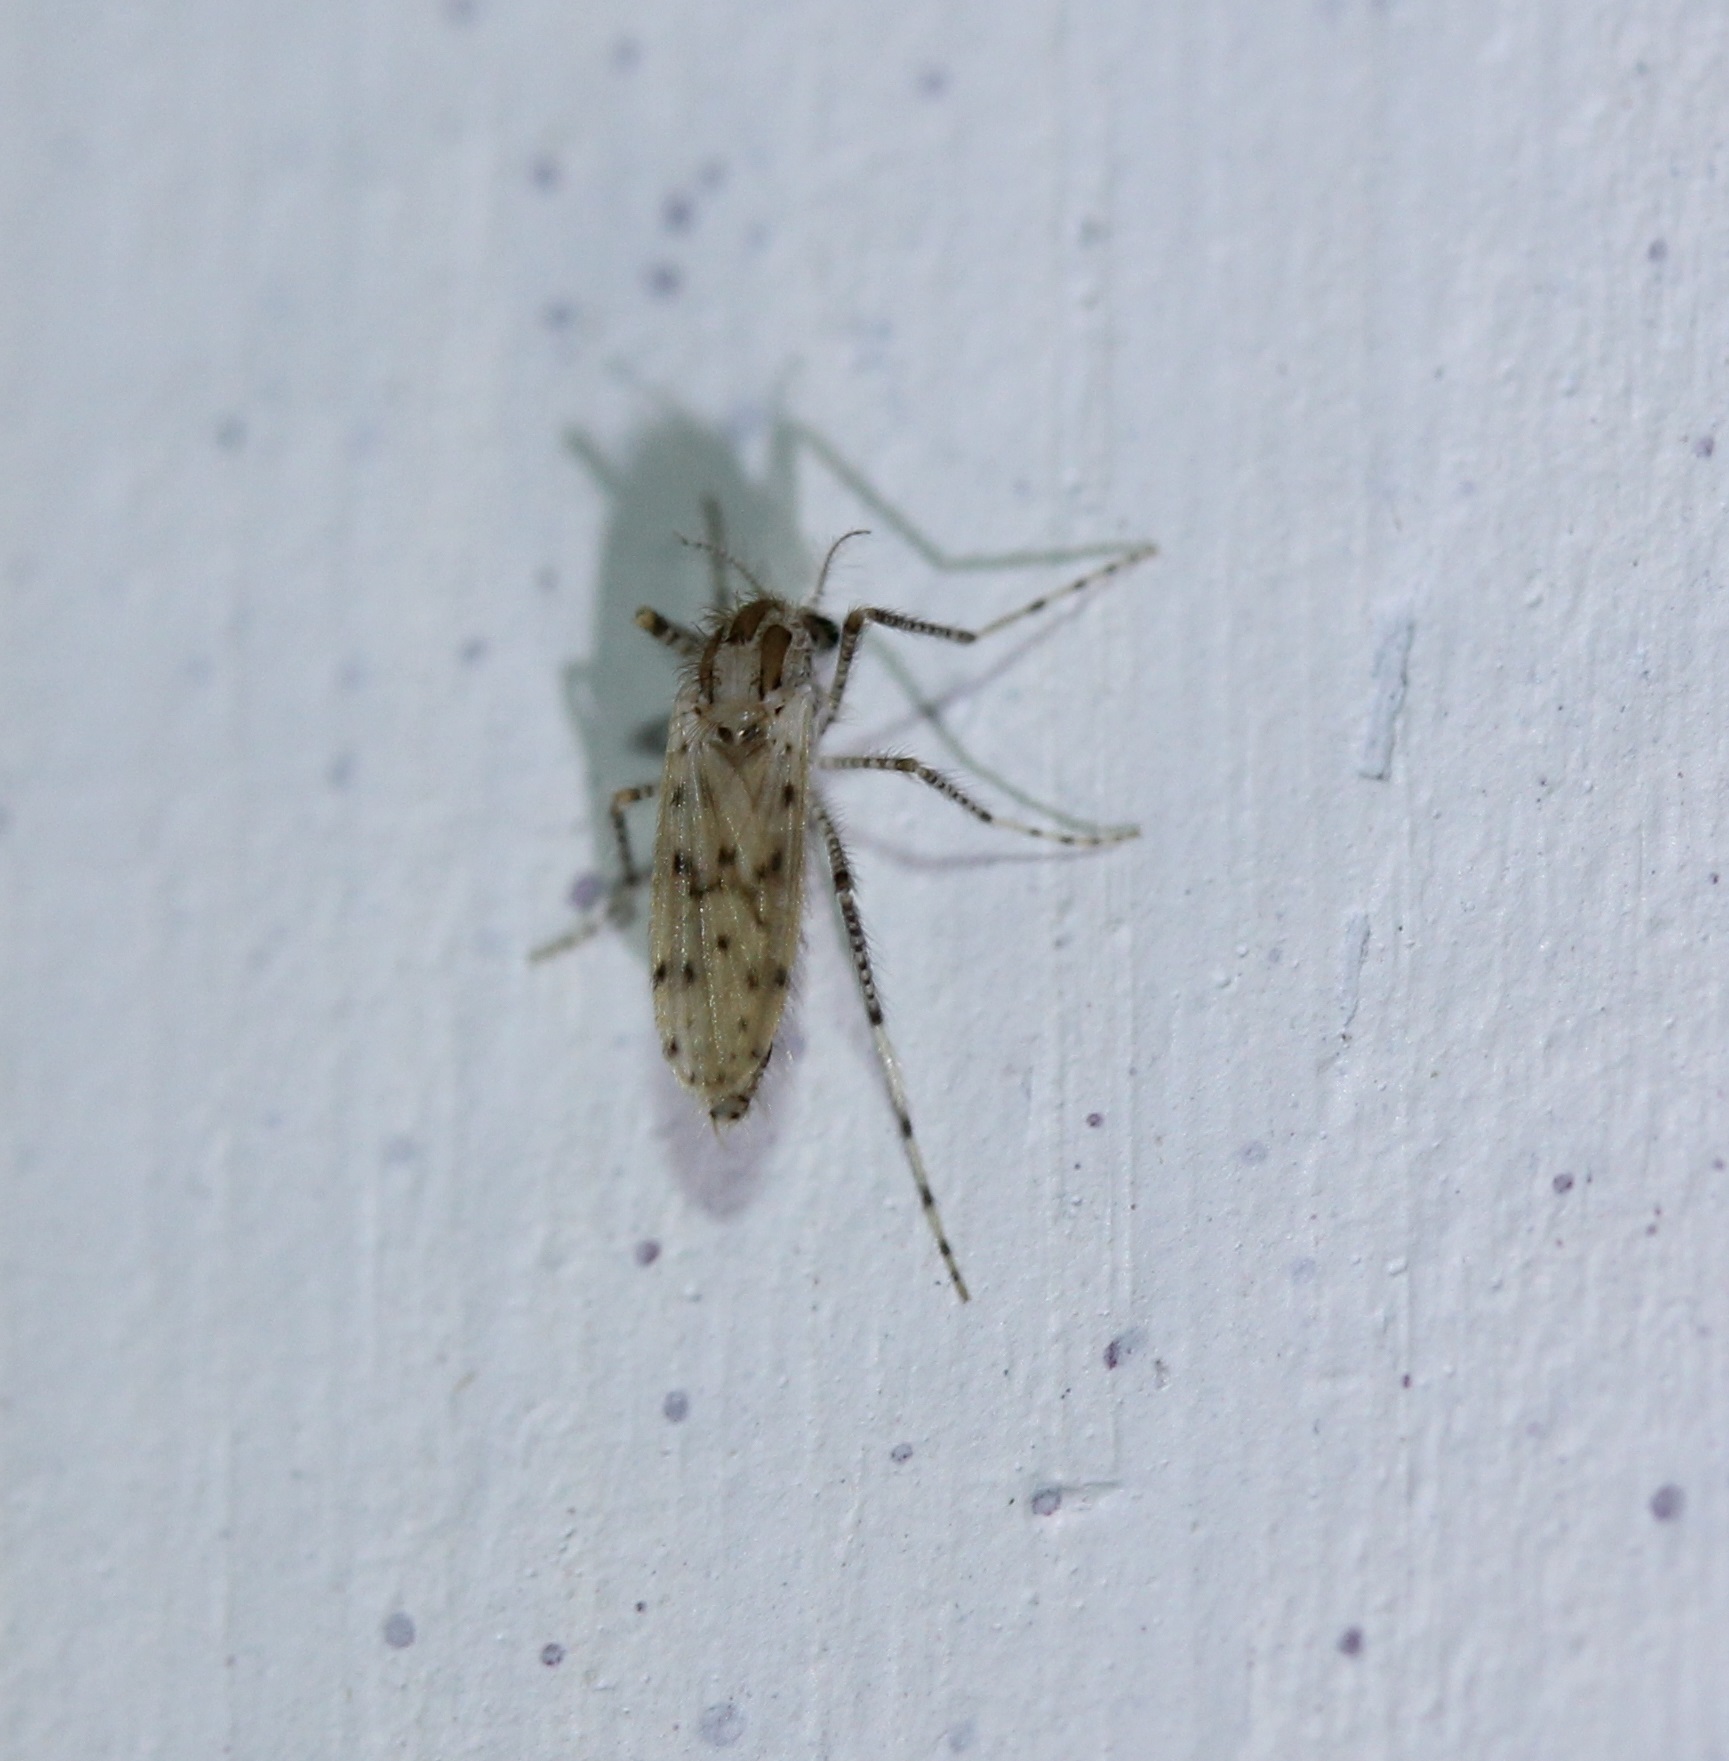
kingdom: Animalia
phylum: Arthropoda
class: Insecta
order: Diptera
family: Chaoboridae
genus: Chaoborus
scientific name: Chaoborus punctipennis
